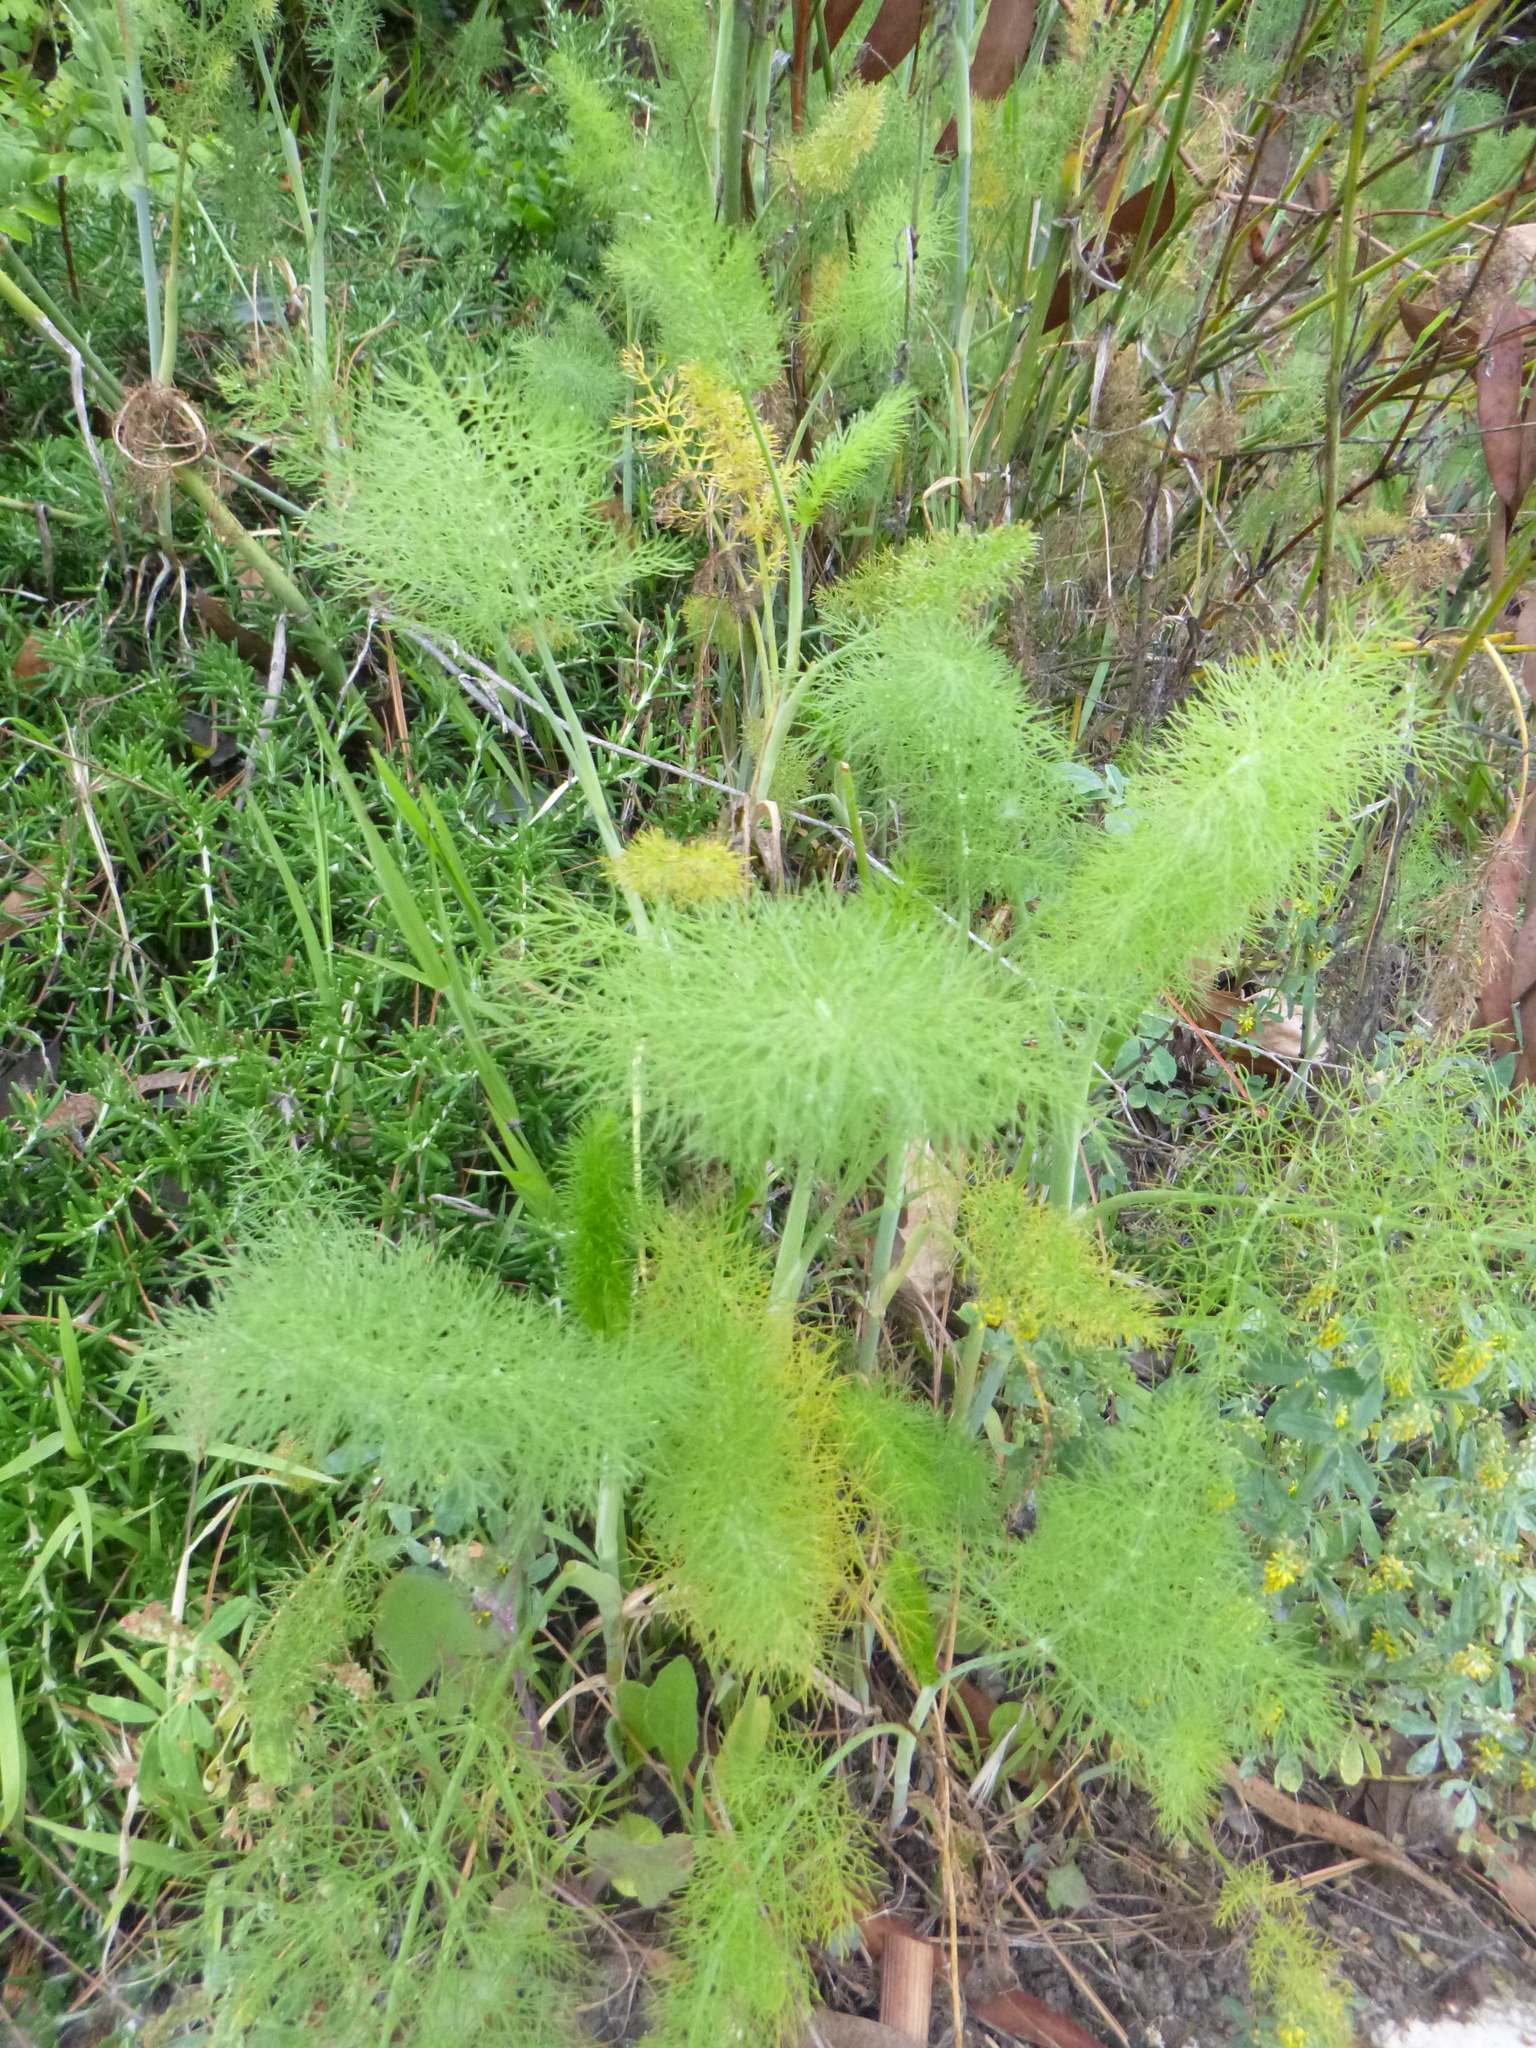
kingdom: Plantae
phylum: Tracheophyta
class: Magnoliopsida
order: Apiales
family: Apiaceae
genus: Foeniculum
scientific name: Foeniculum vulgare
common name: Fennel
